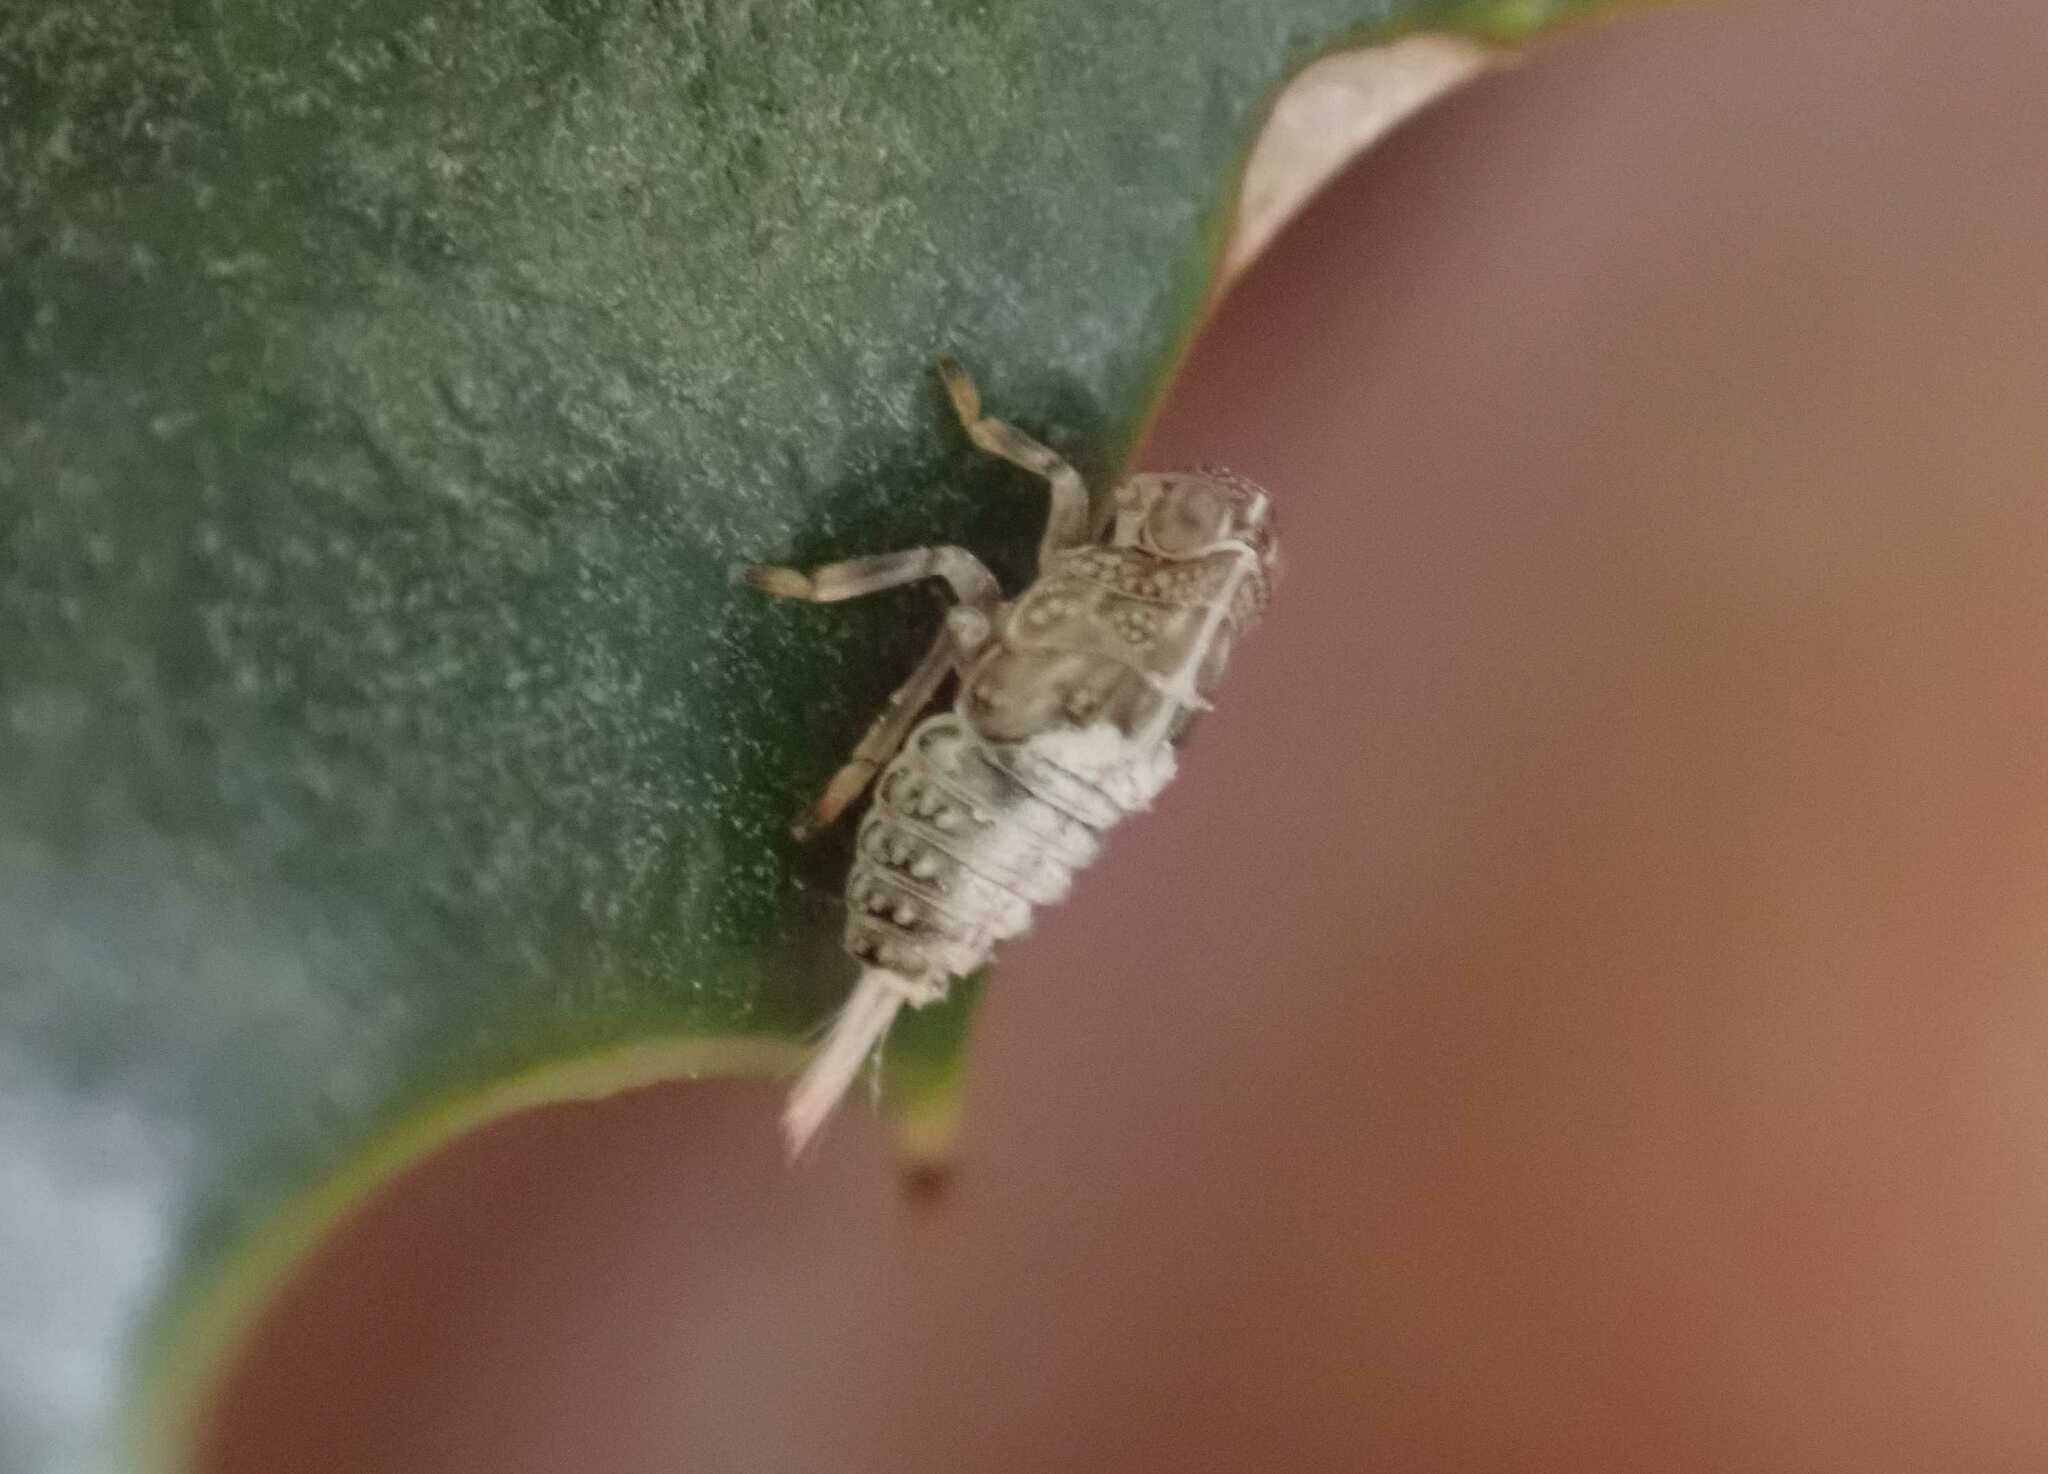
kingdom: Animalia
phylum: Arthropoda
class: Insecta
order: Hemiptera
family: Issidae
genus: Issus
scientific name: Issus coleoptratus
